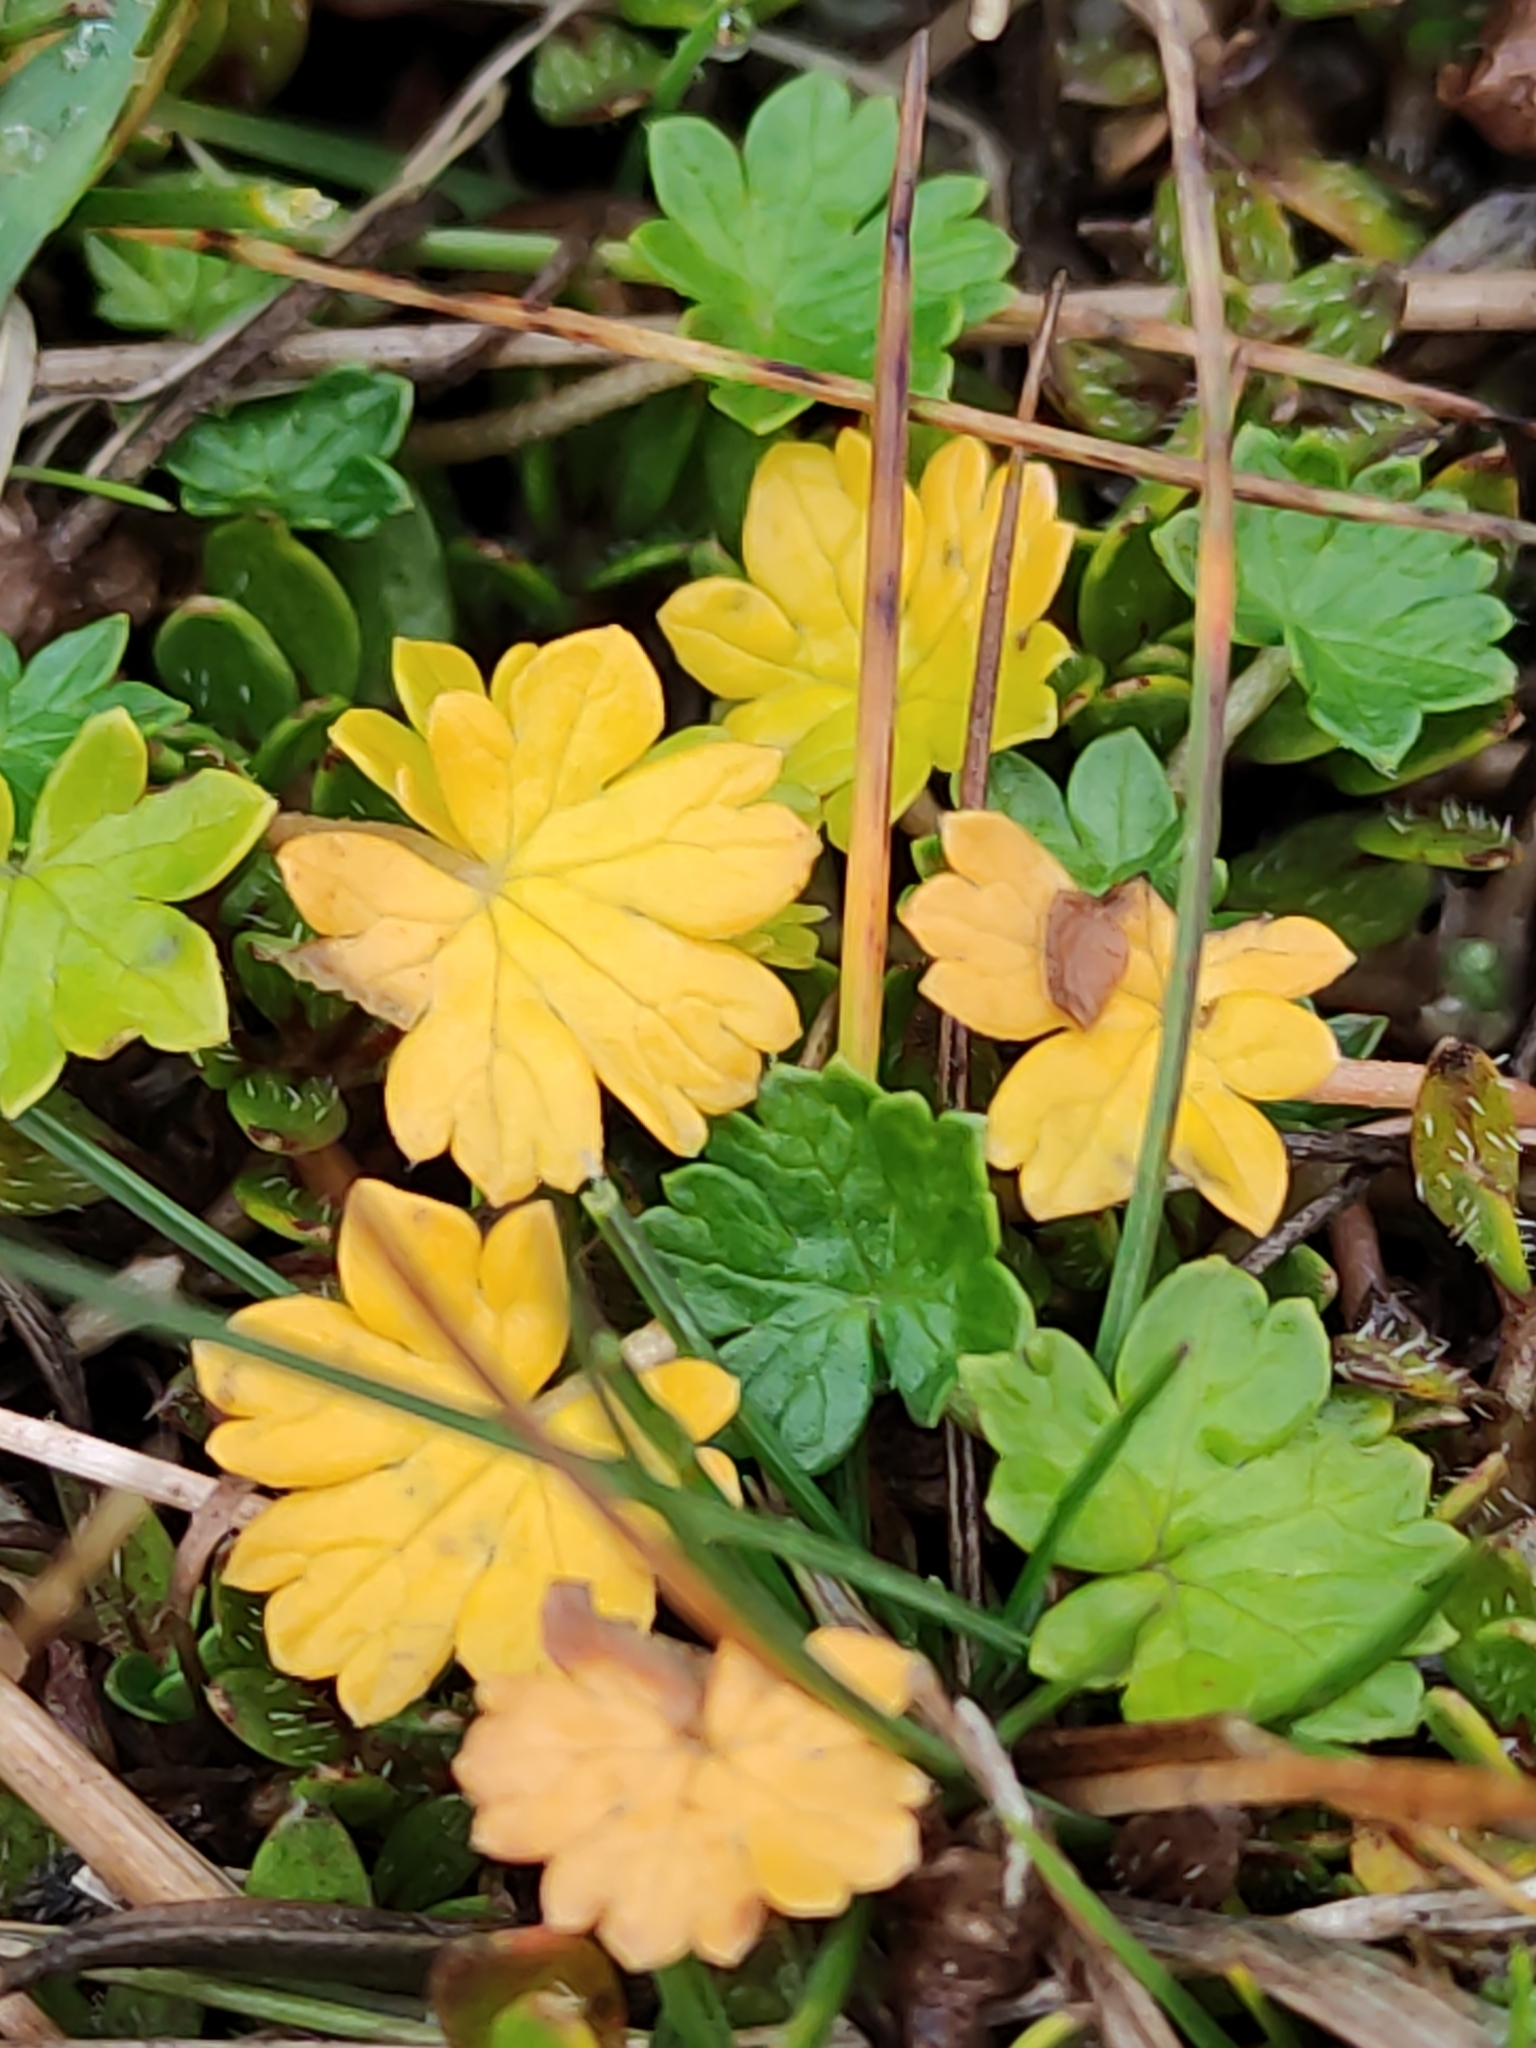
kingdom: Plantae
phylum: Tracheophyta
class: Magnoliopsida
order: Geraniales
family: Geraniaceae
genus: Geranium
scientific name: Geranium brevicaule
